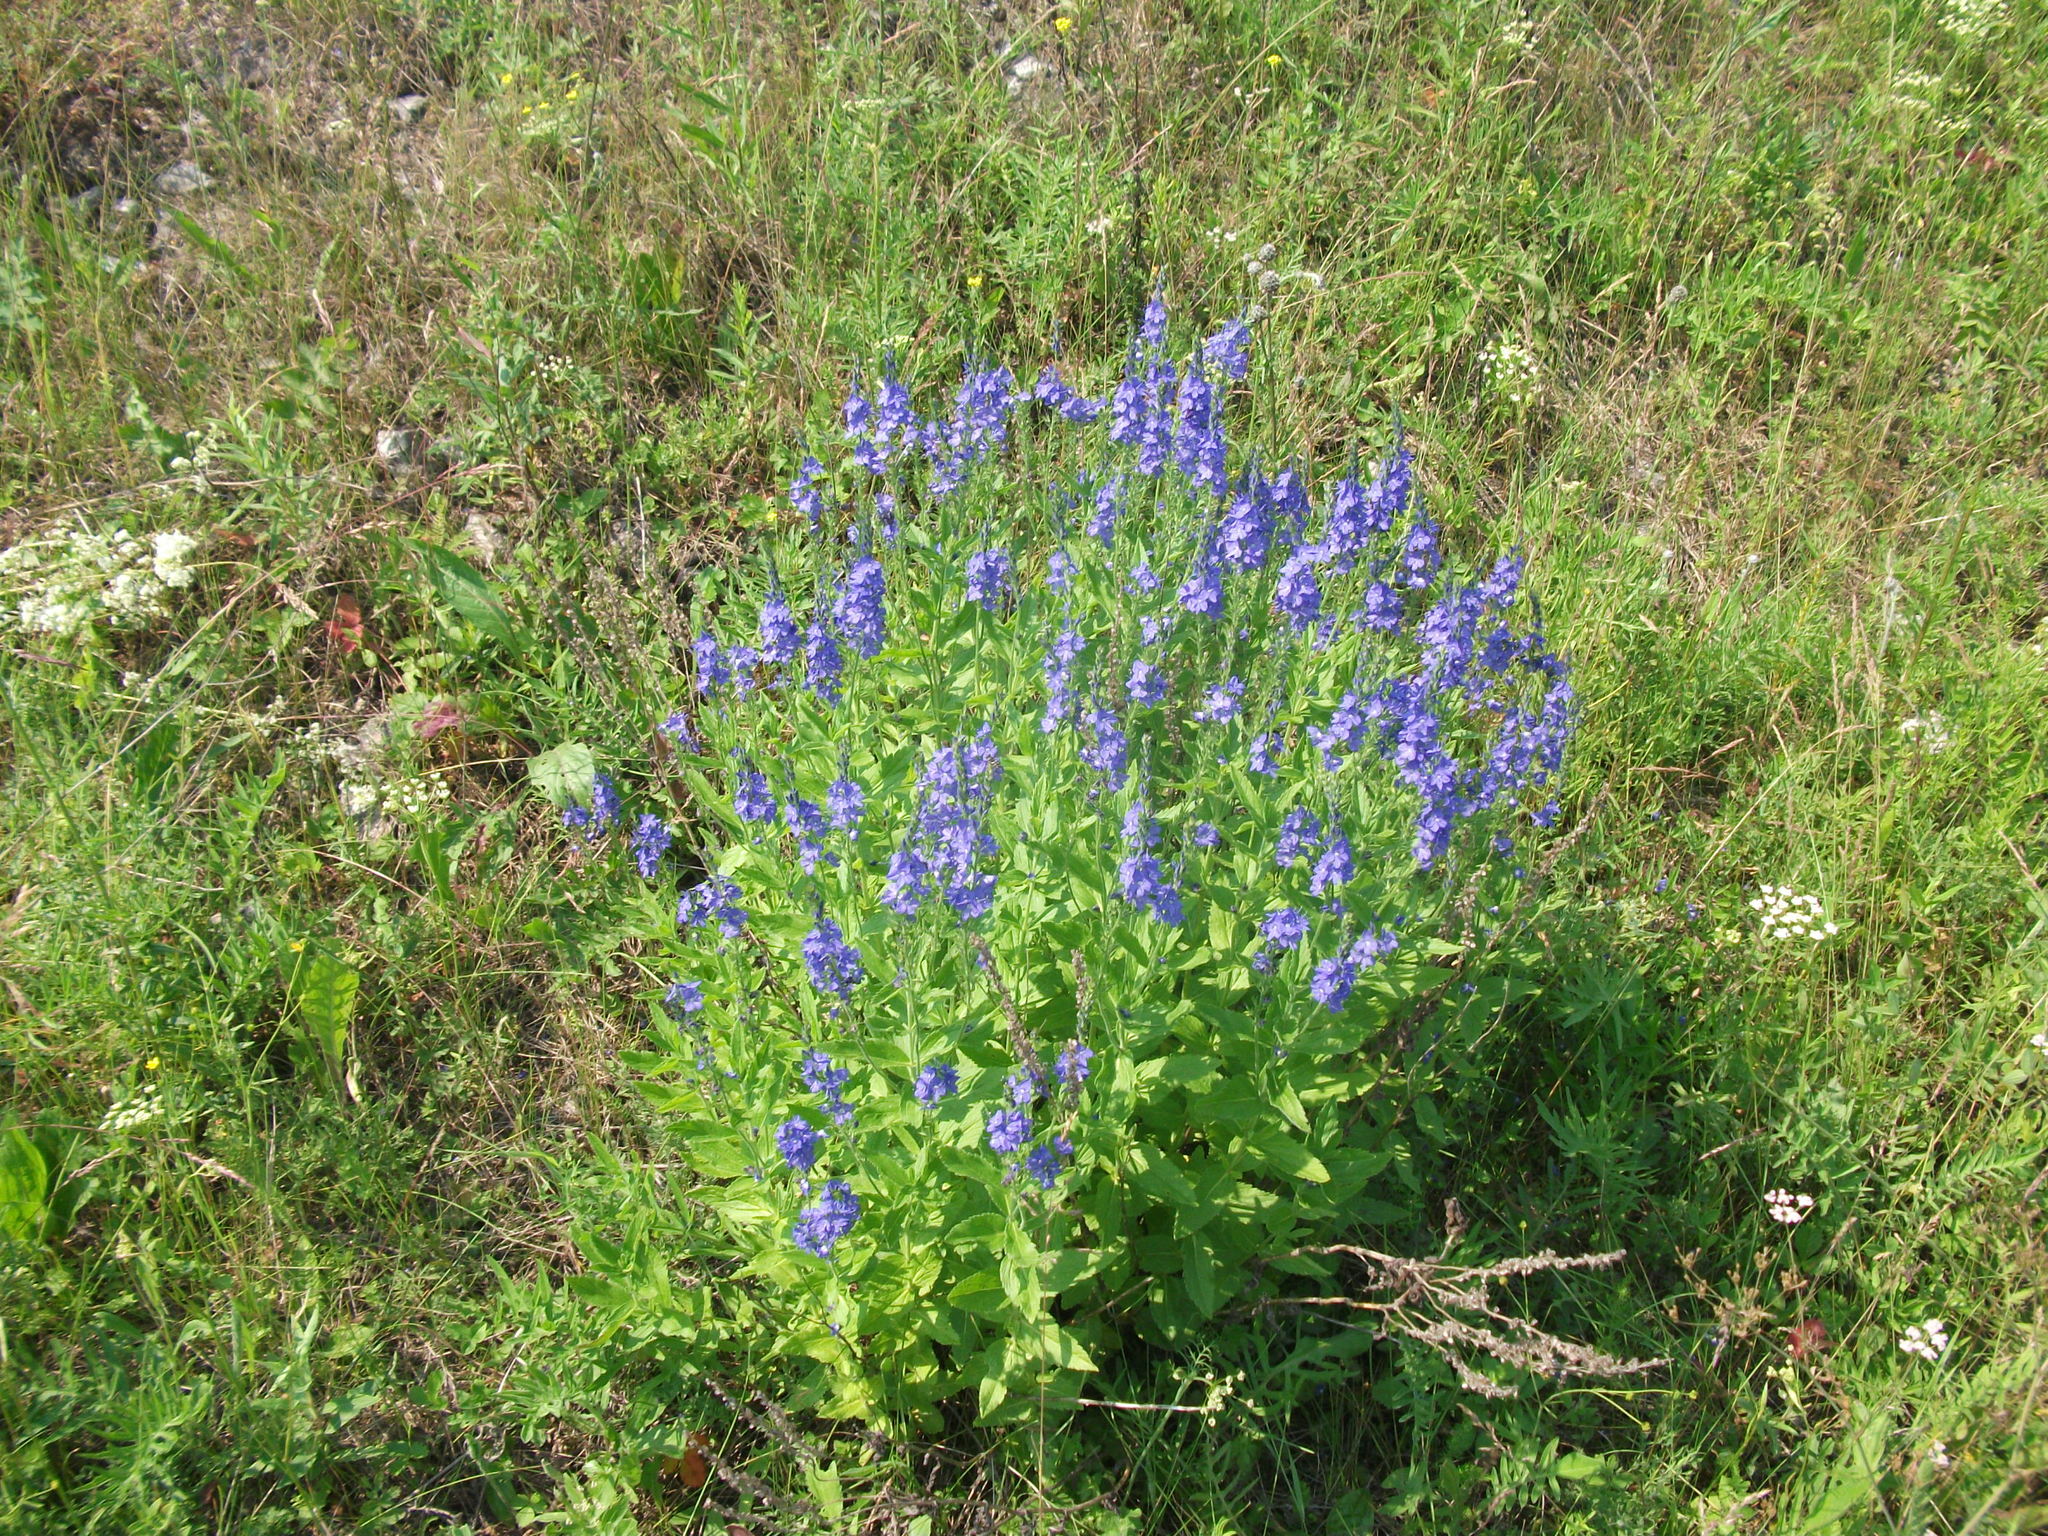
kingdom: Plantae
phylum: Tracheophyta
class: Magnoliopsida
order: Lamiales
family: Plantaginaceae
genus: Veronica
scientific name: Veronica teucrium
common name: Large speedwell
